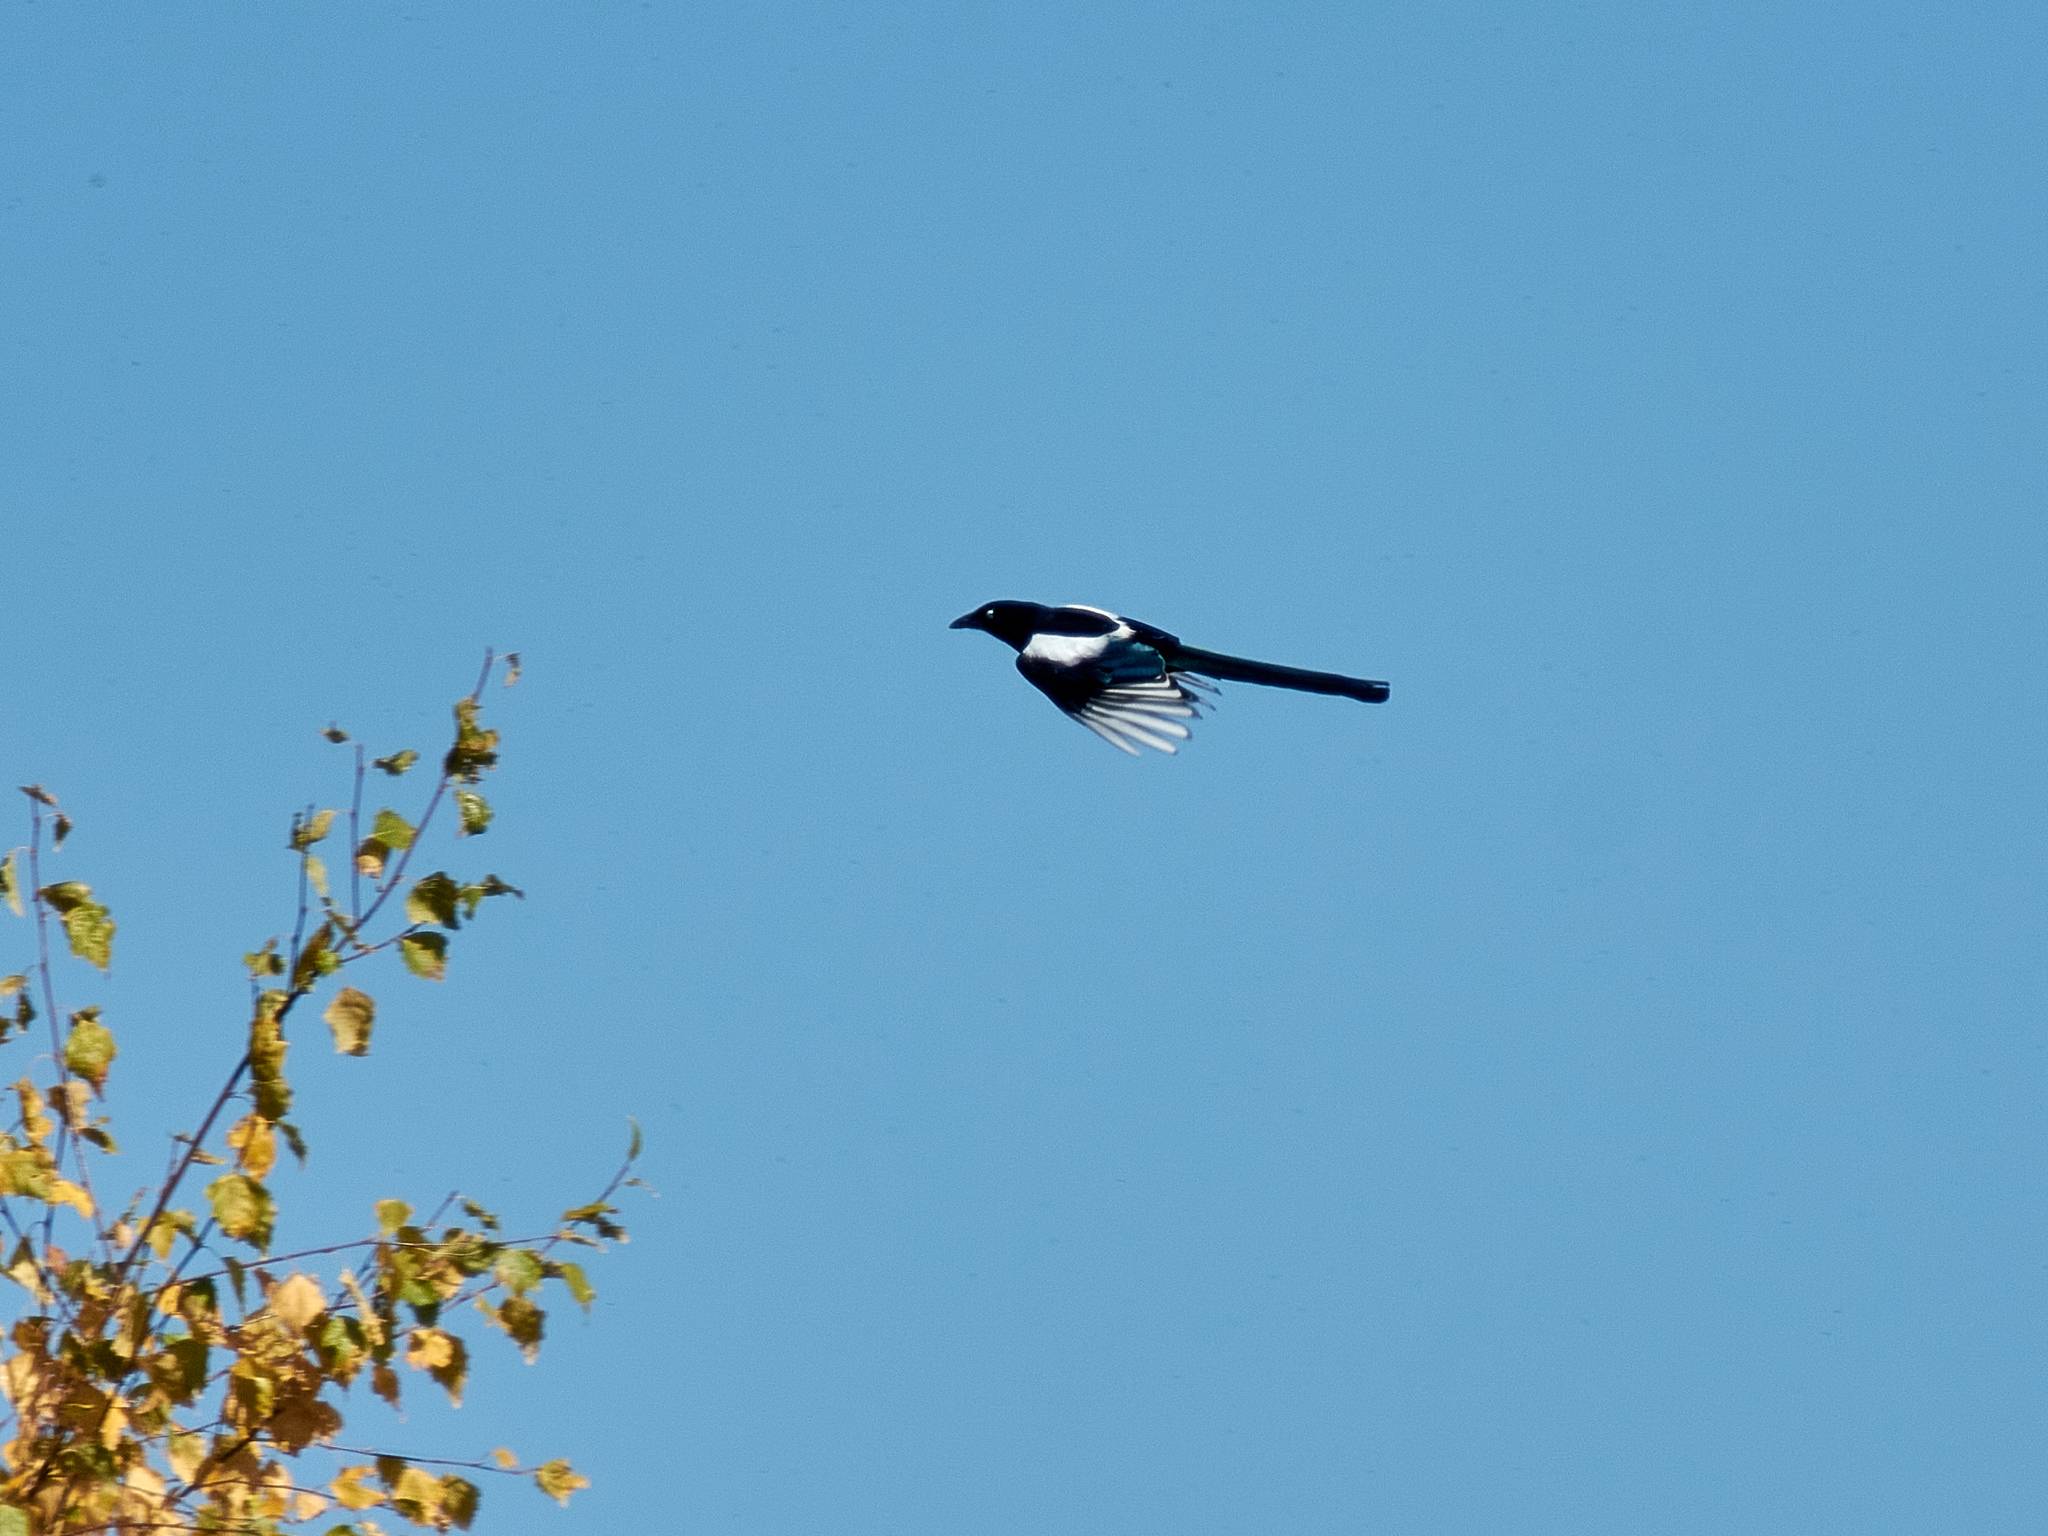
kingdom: Animalia
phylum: Chordata
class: Aves
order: Passeriformes
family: Corvidae
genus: Pica
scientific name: Pica pica
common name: Eurasian magpie
